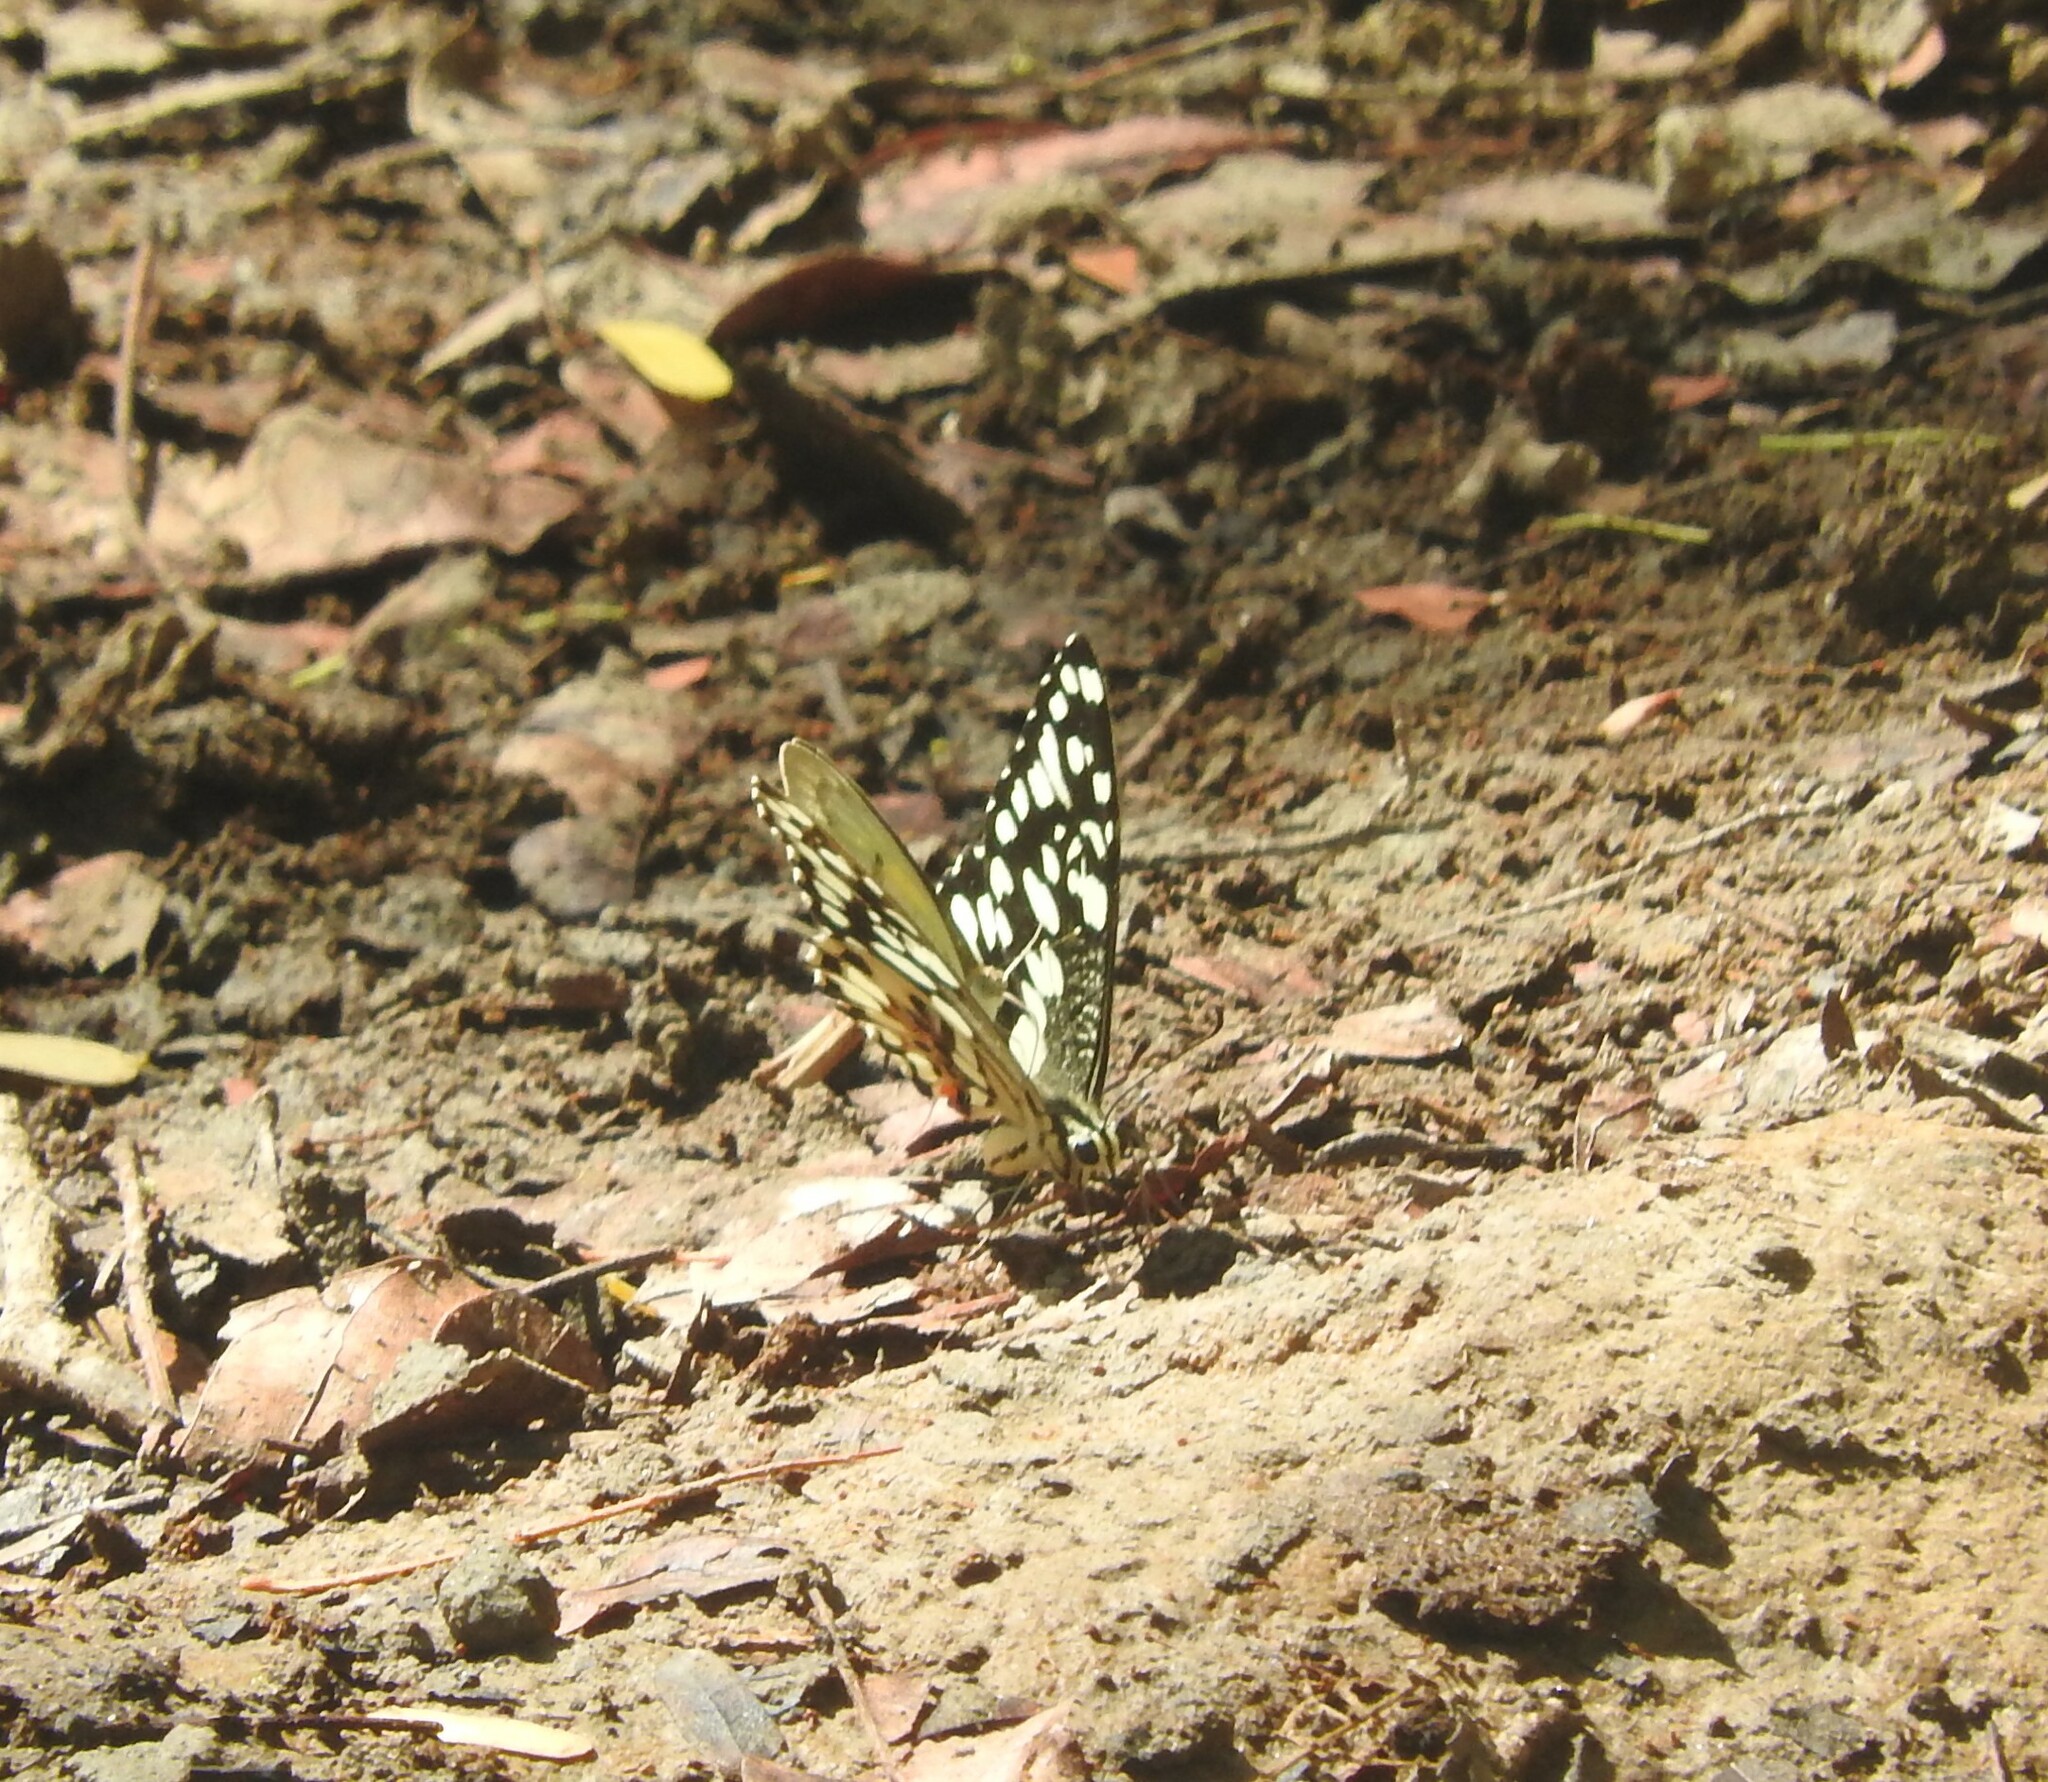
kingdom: Animalia
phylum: Arthropoda
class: Insecta
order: Lepidoptera
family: Papilionidae
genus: Papilio
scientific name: Papilio demoleus
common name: Lime butterfly
